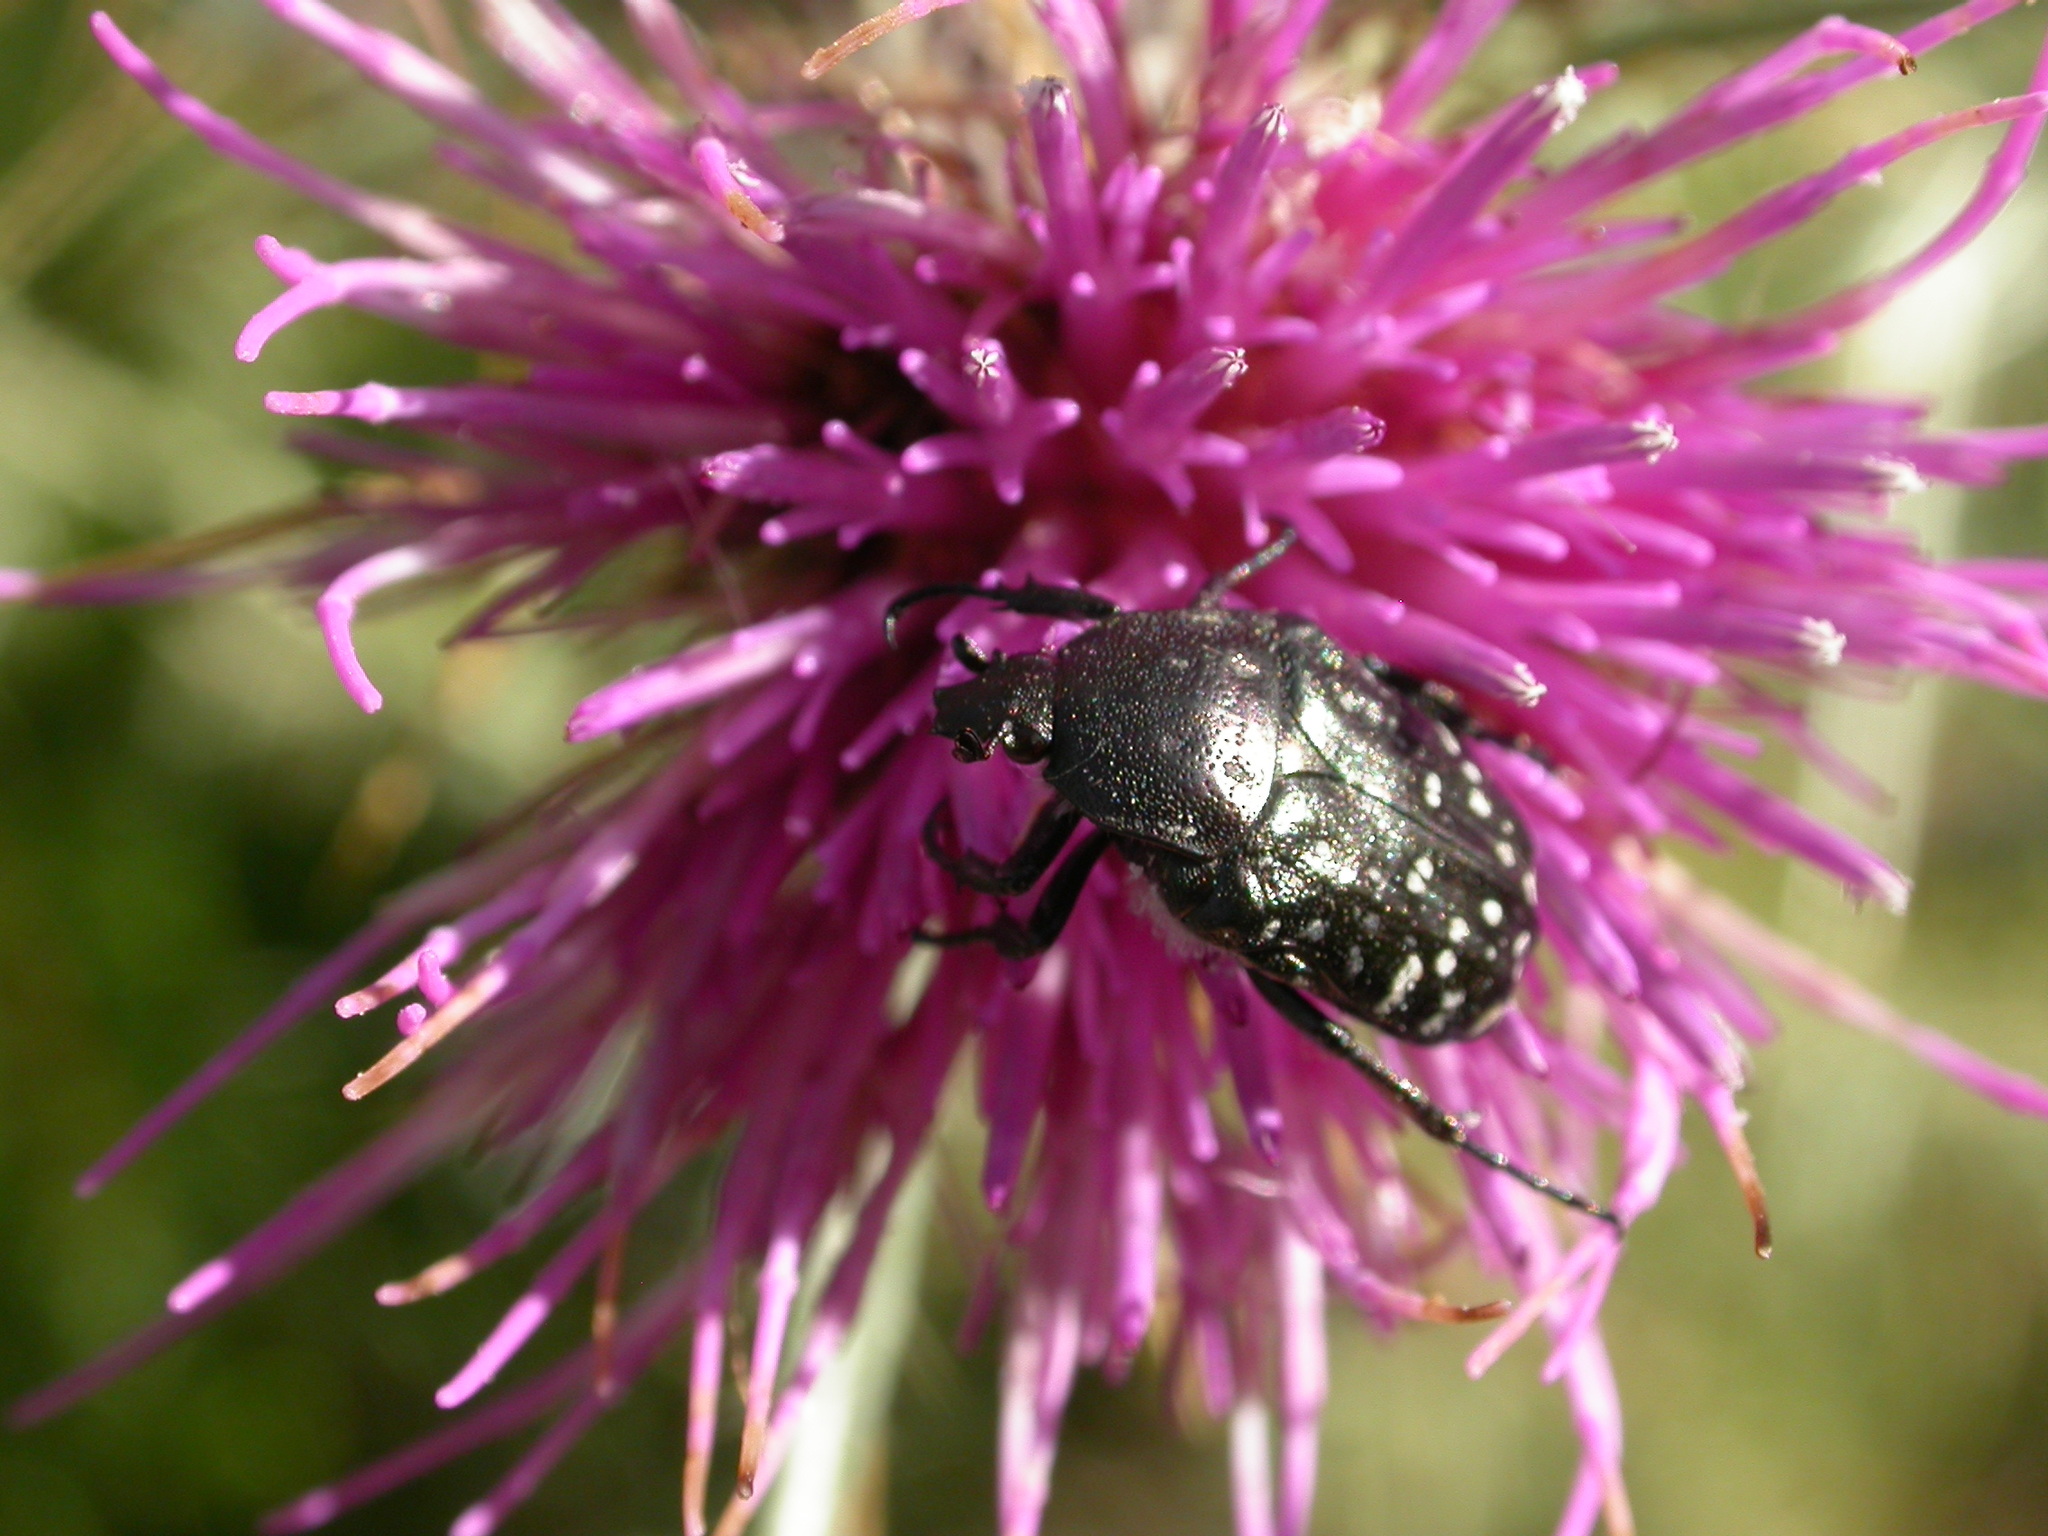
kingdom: Animalia
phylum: Arthropoda
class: Insecta
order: Coleoptera
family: Scarabaeidae
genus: Oxythyrea
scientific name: Oxythyrea funesta
